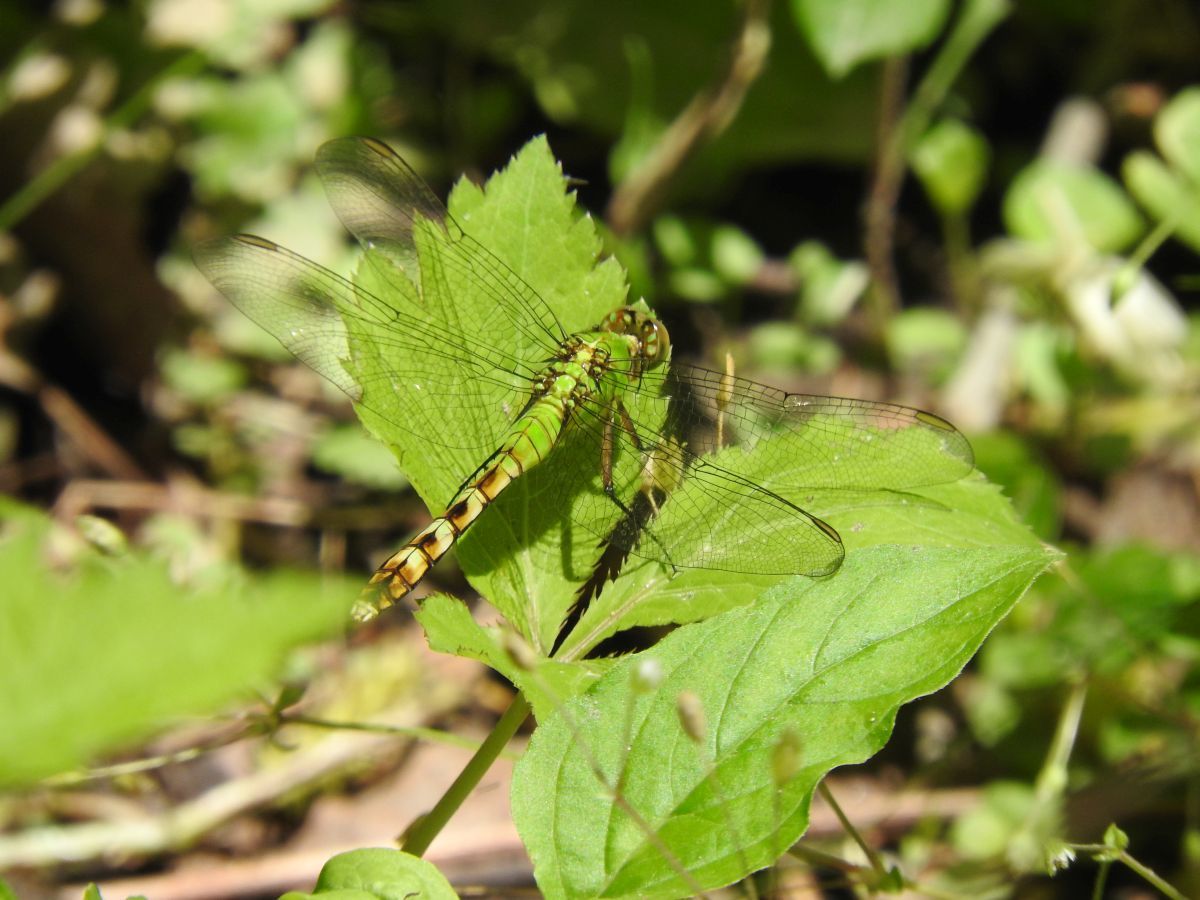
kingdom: Animalia
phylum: Arthropoda
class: Insecta
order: Odonata
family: Libellulidae
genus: Erythemis
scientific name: Erythemis simplicicollis
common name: Eastern pondhawk
